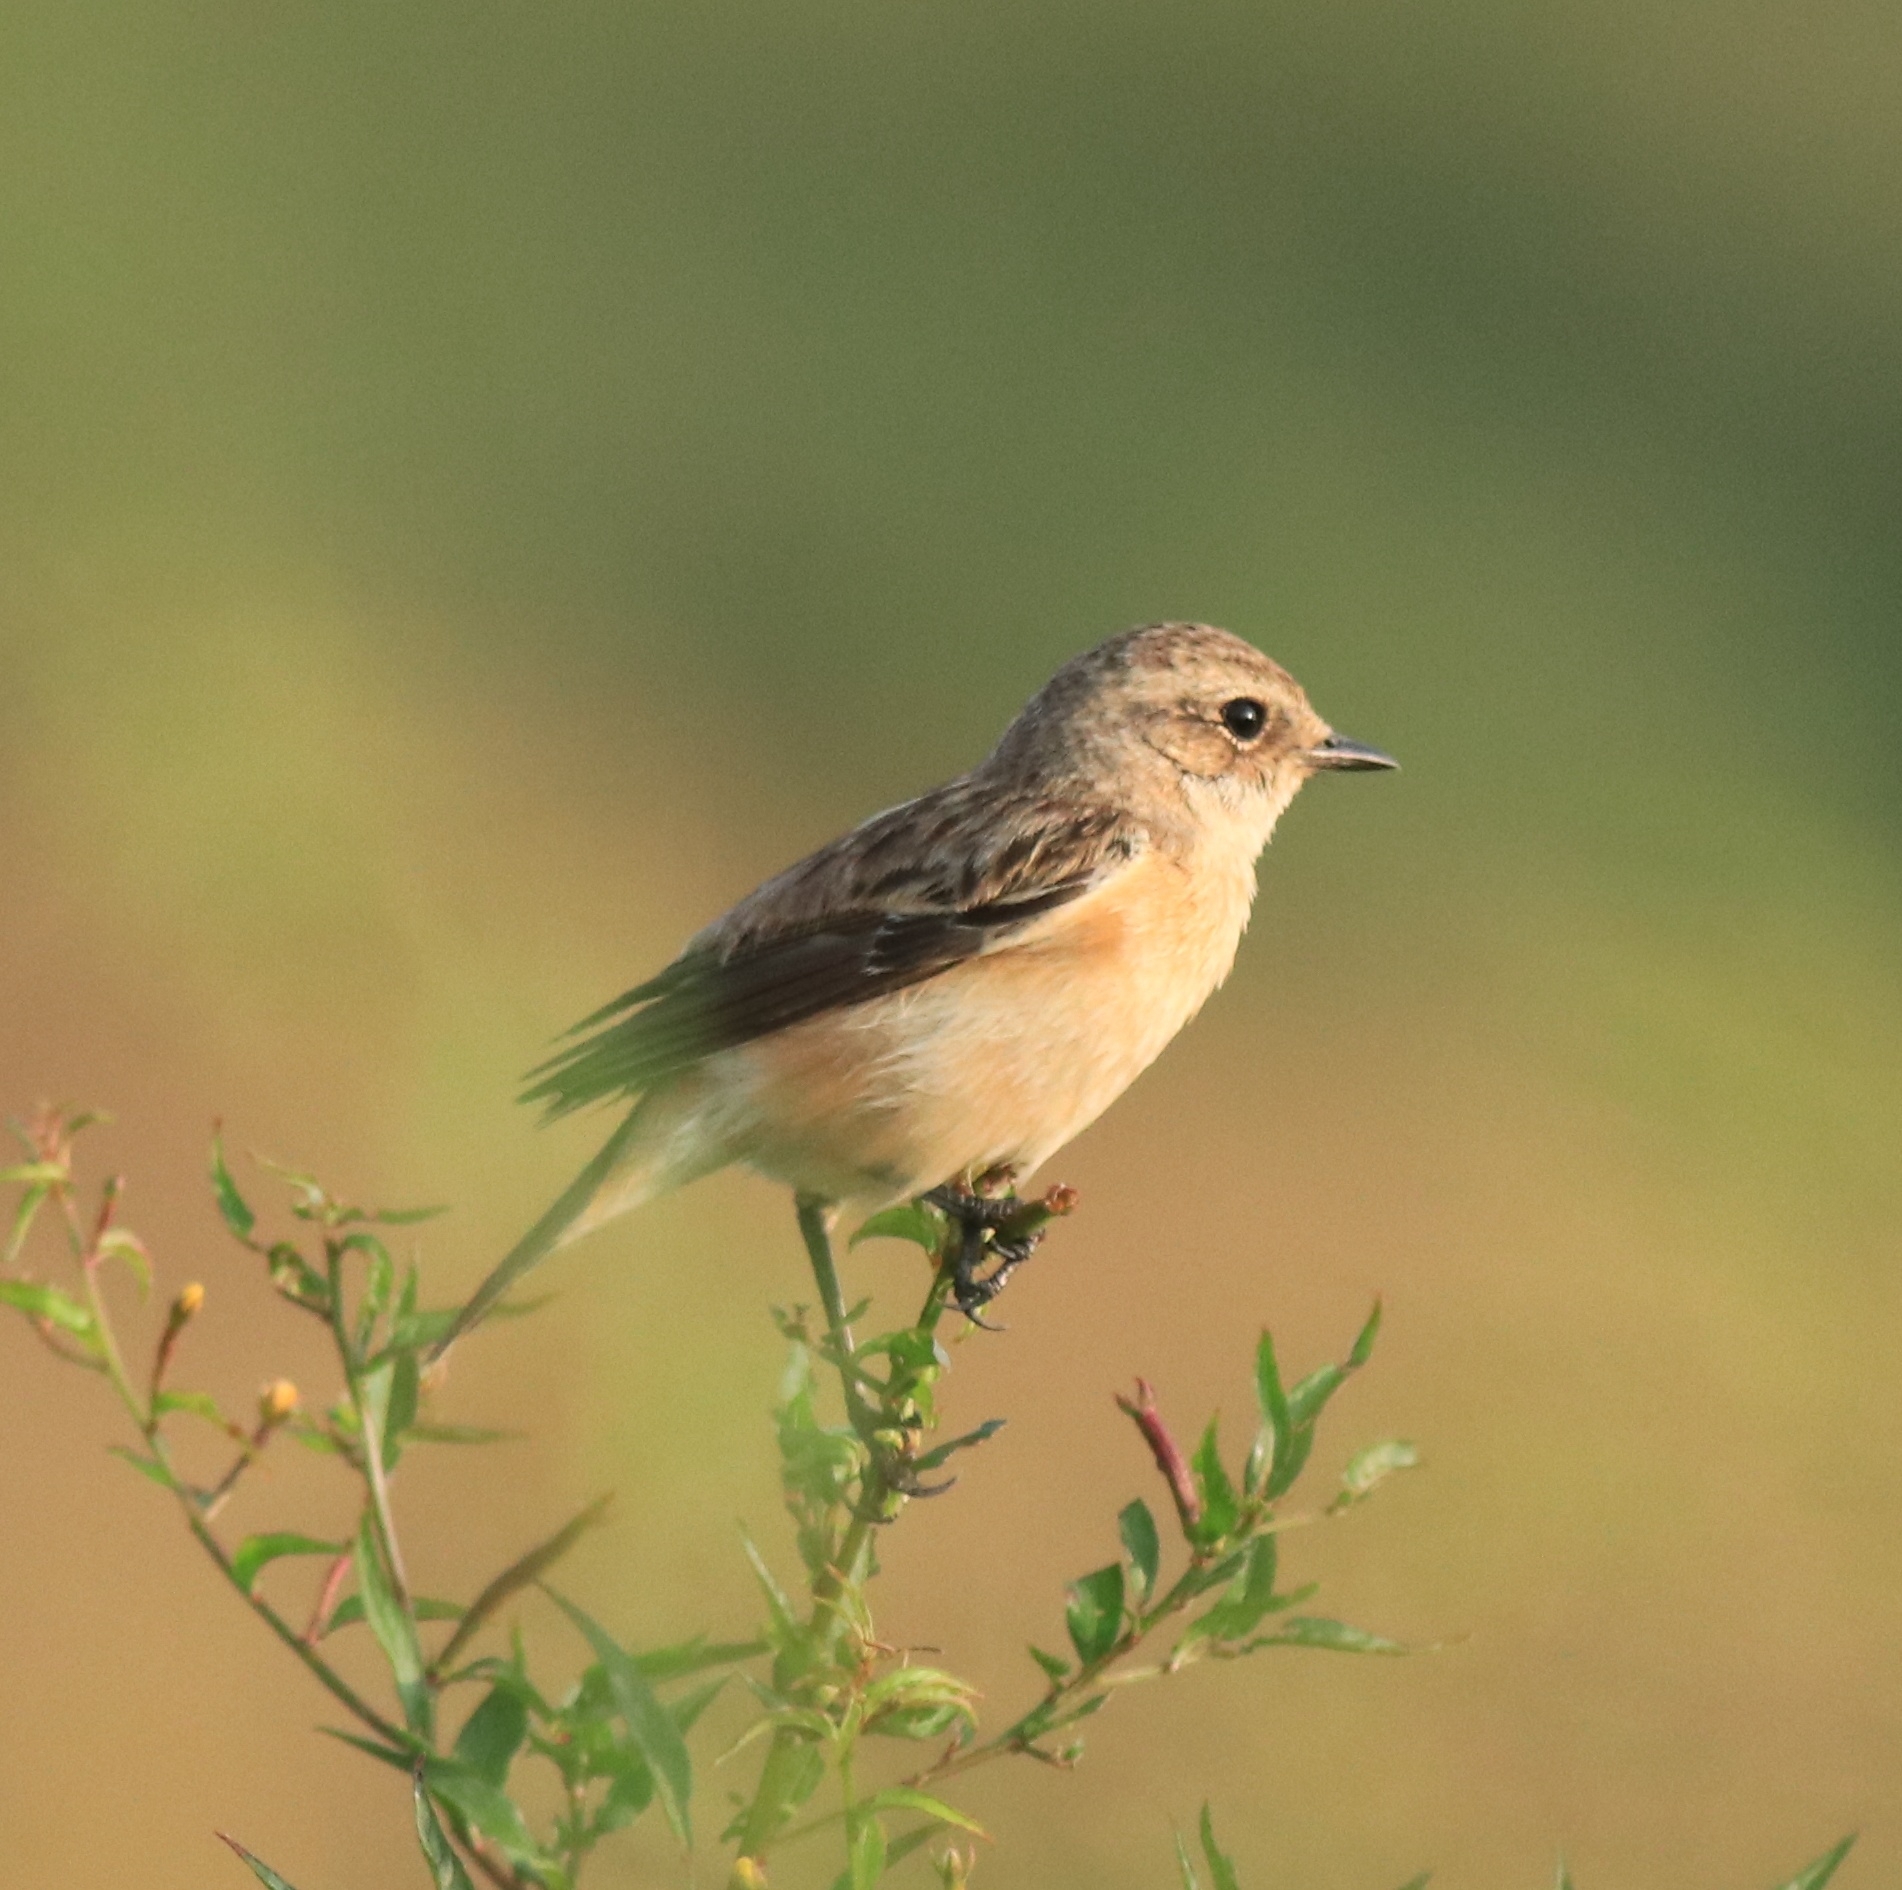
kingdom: Animalia
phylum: Chordata
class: Aves
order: Passeriformes
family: Muscicapidae
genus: Saxicola
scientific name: Saxicola maurus
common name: Siberian stonechat
